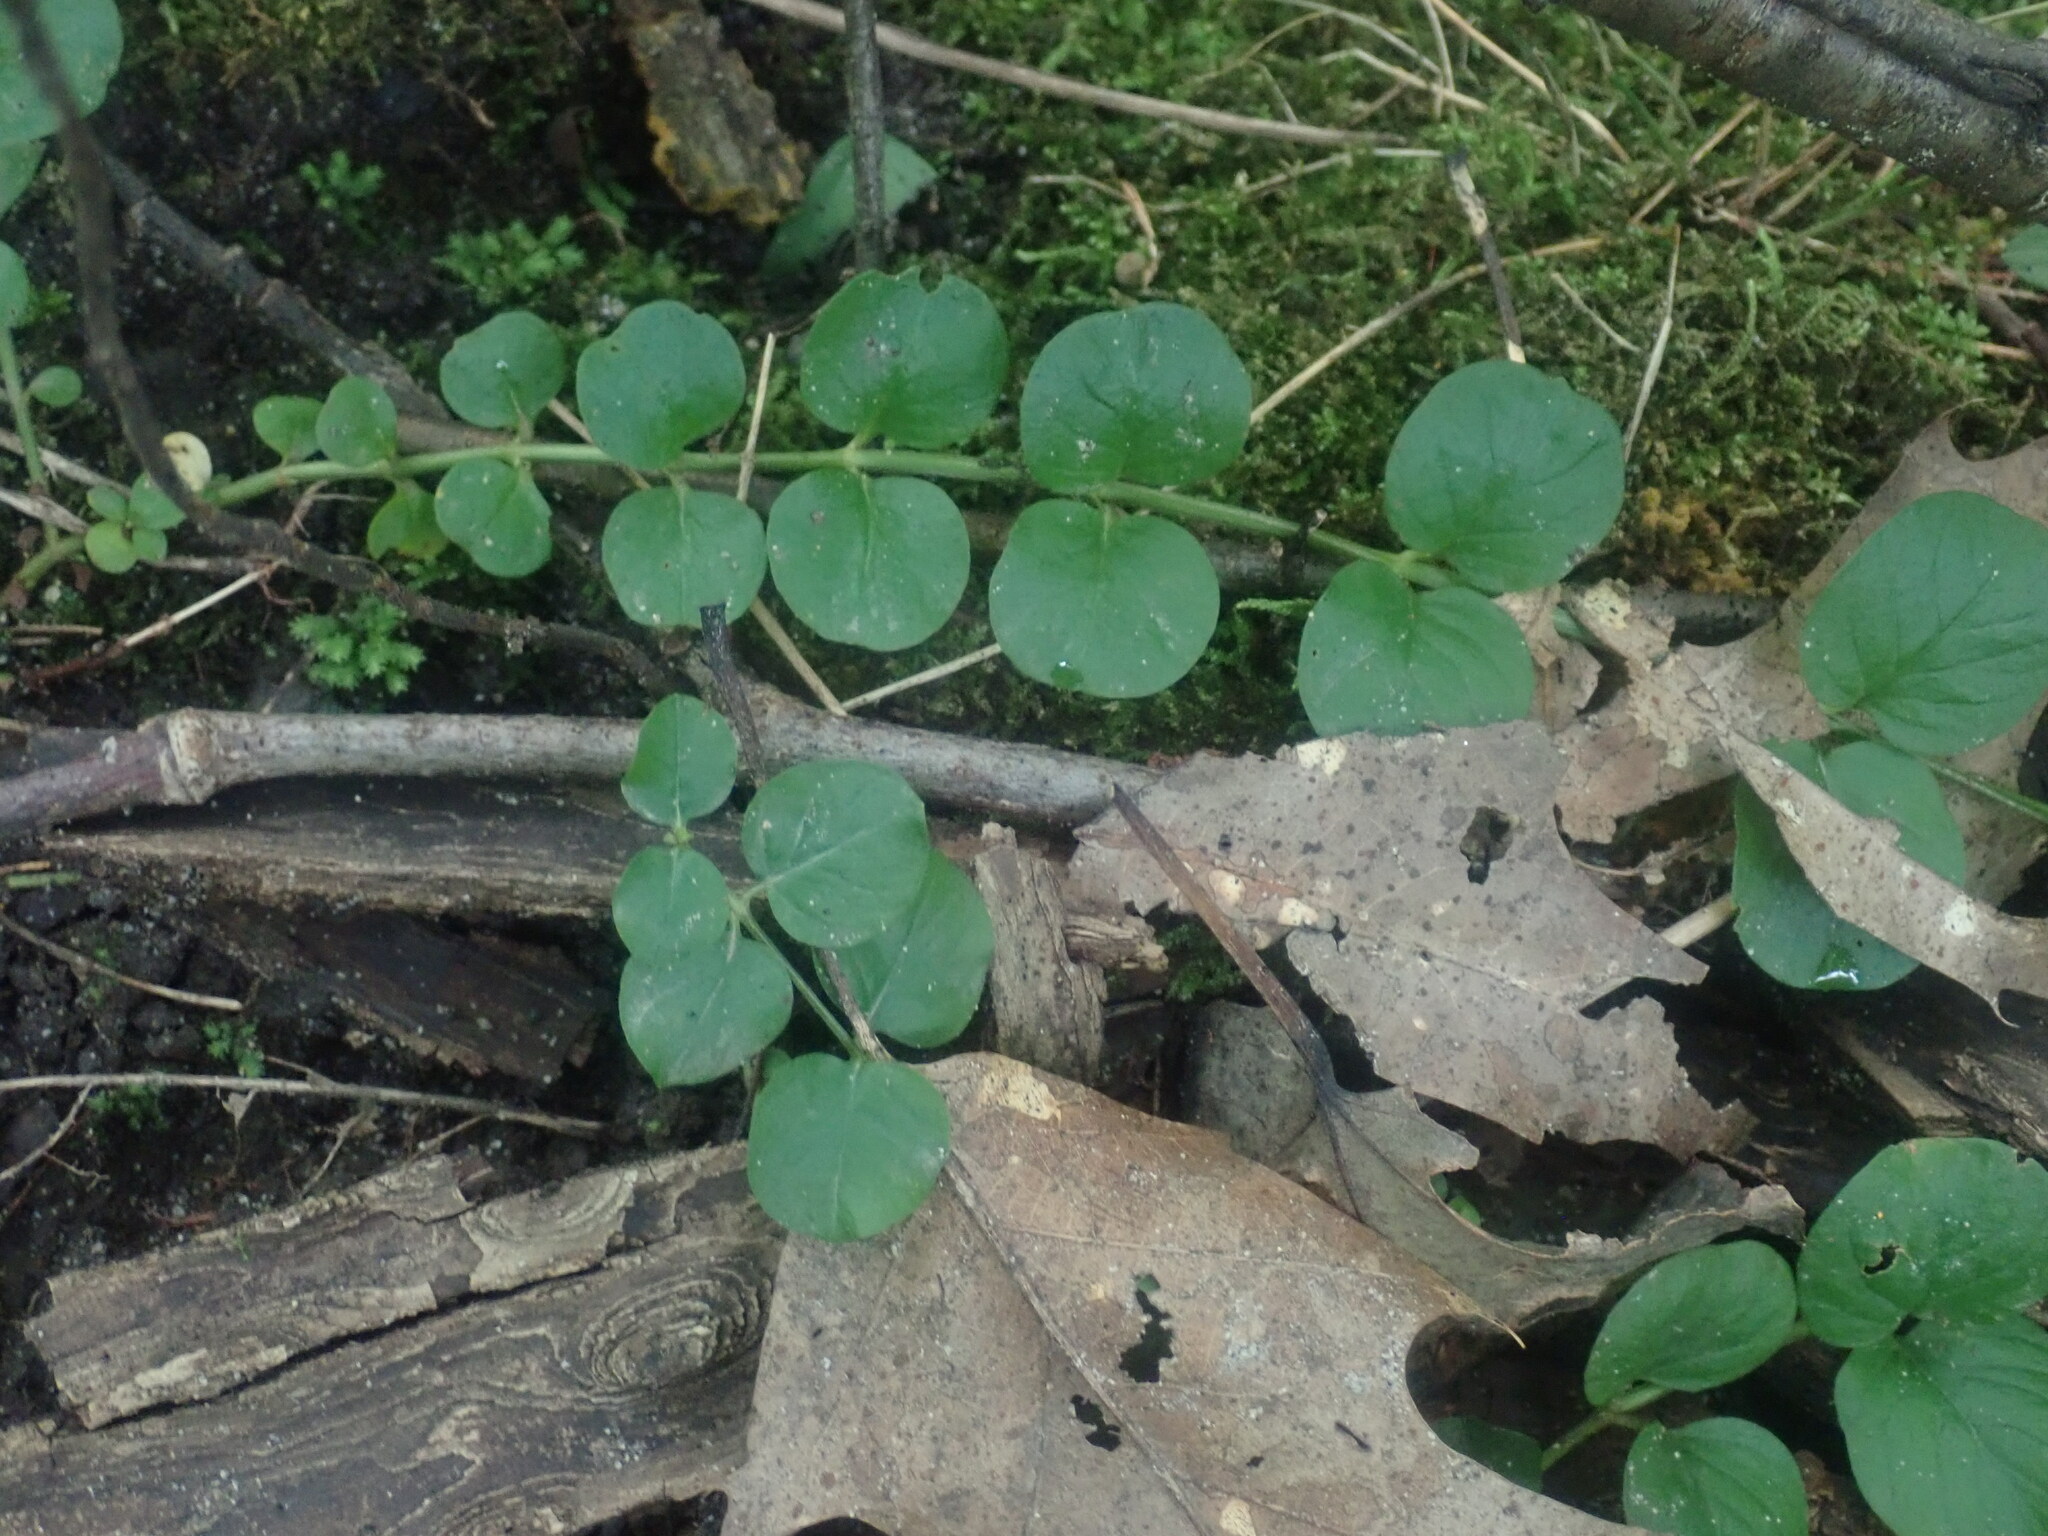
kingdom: Plantae
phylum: Tracheophyta
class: Magnoliopsida
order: Ericales
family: Primulaceae
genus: Lysimachia
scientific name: Lysimachia nummularia
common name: Moneywort
